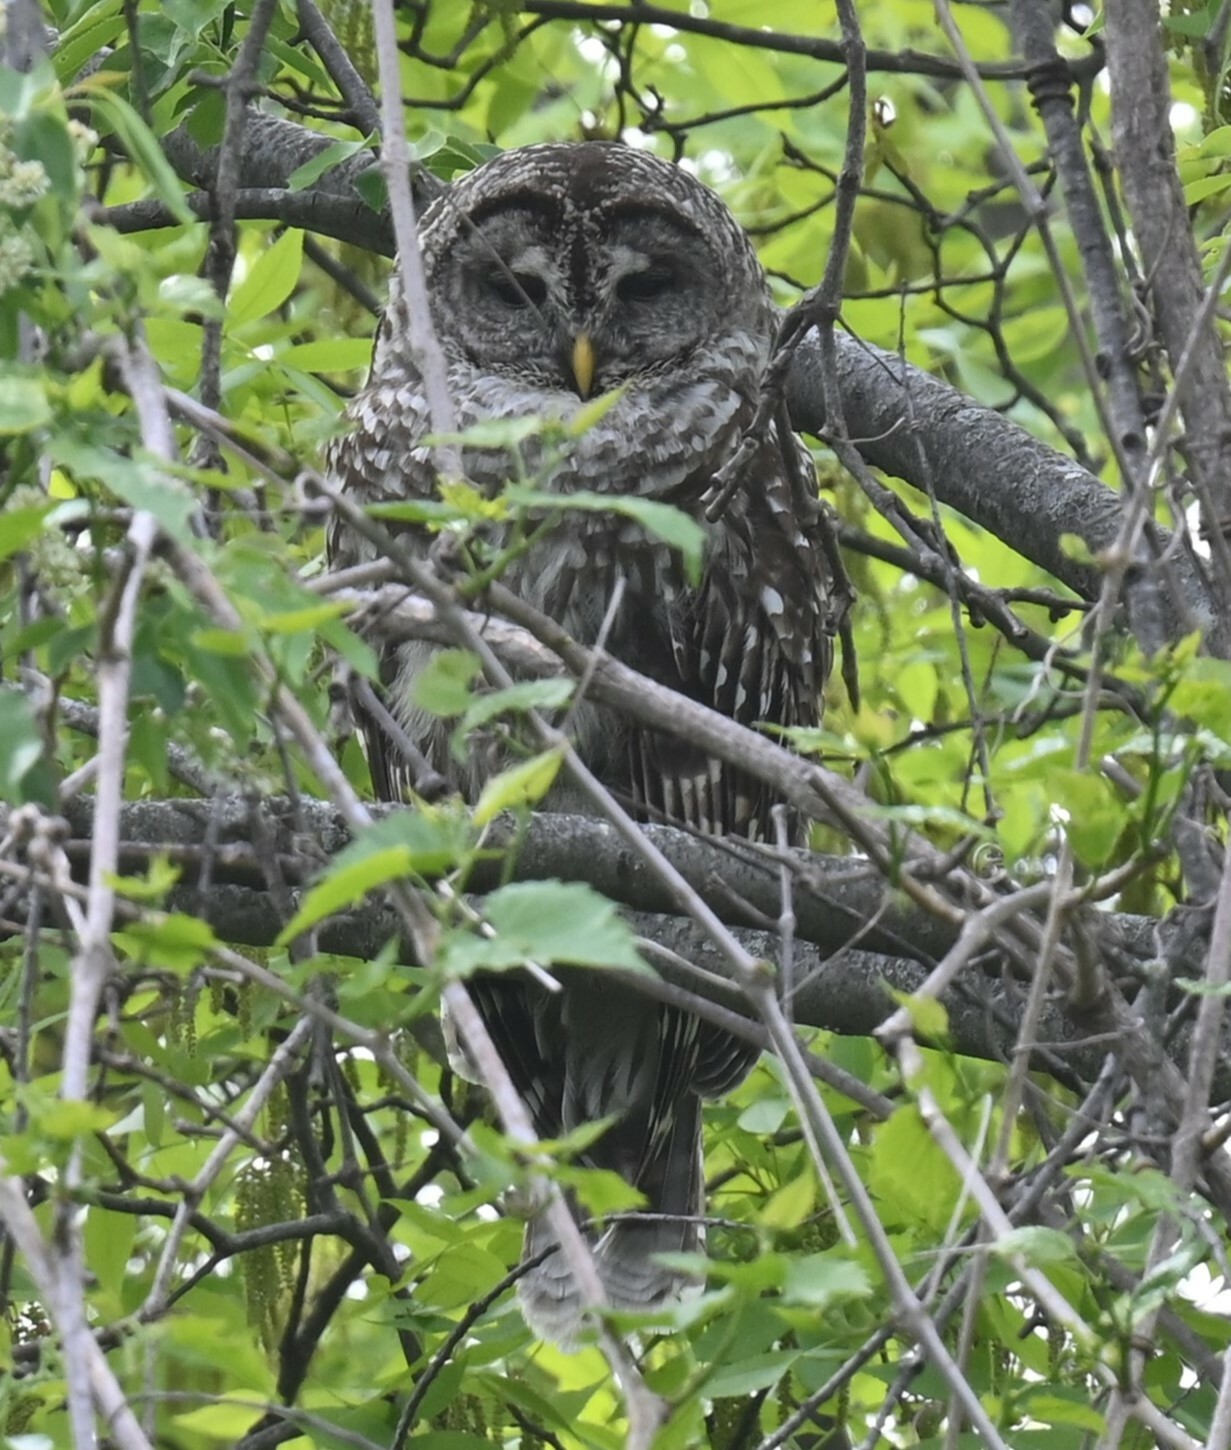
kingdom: Animalia
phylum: Chordata
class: Aves
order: Strigiformes
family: Strigidae
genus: Strix
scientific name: Strix varia
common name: Barred owl
